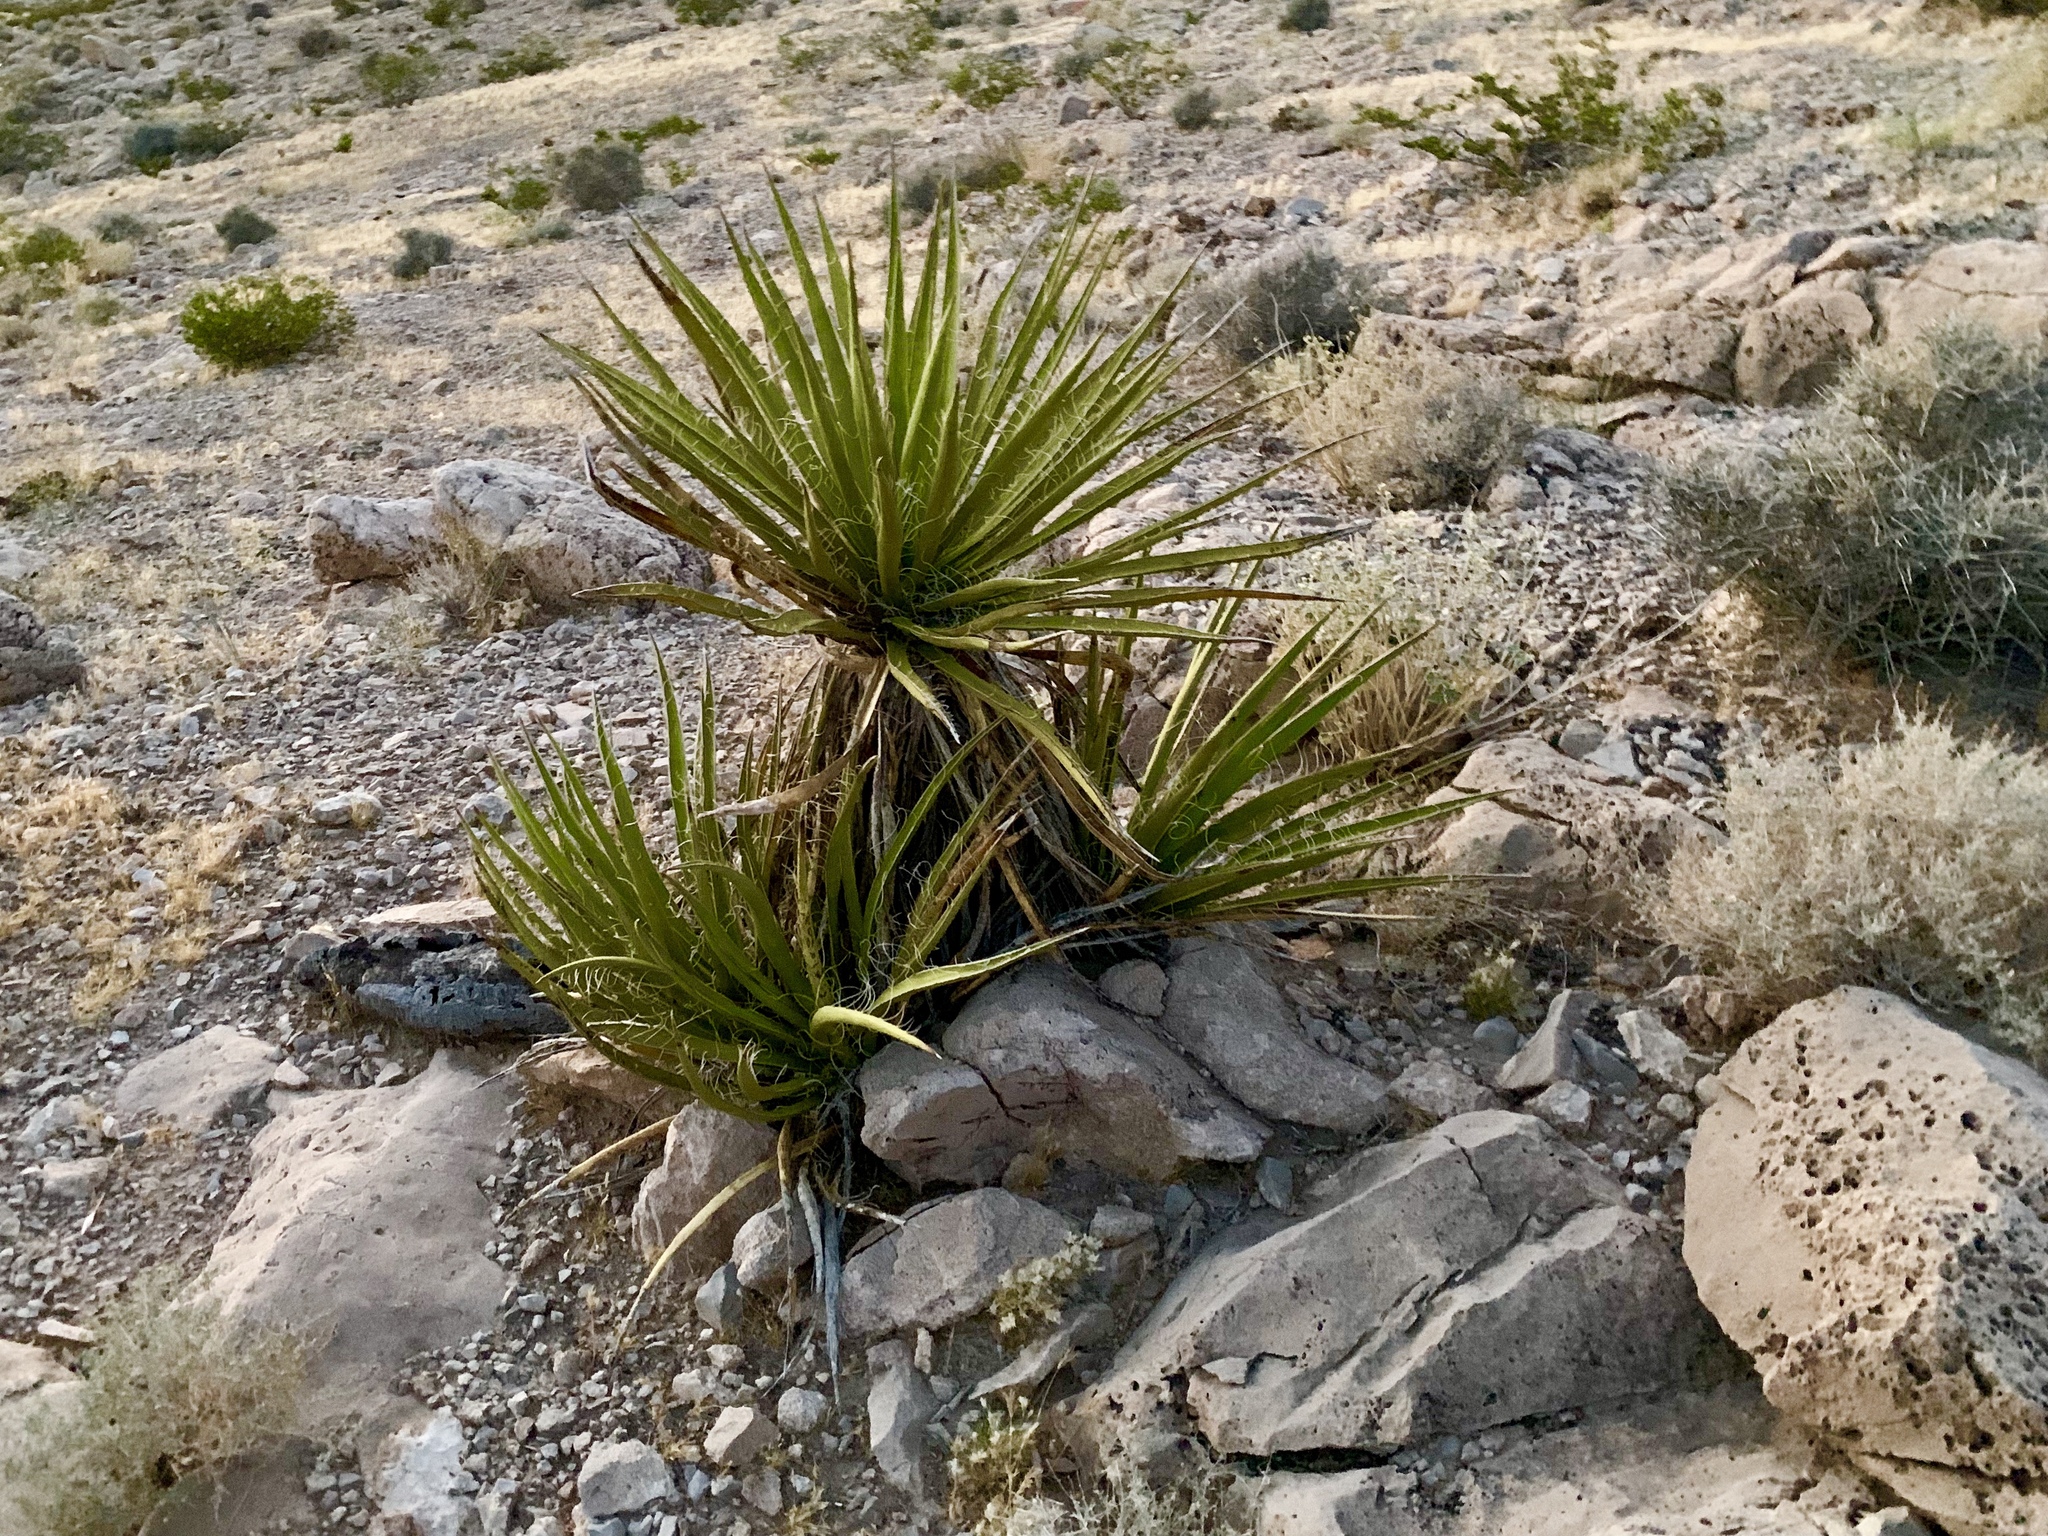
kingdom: Plantae
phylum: Tracheophyta
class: Liliopsida
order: Asparagales
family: Asparagaceae
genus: Yucca
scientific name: Yucca schidigera
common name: Mojave yucca
